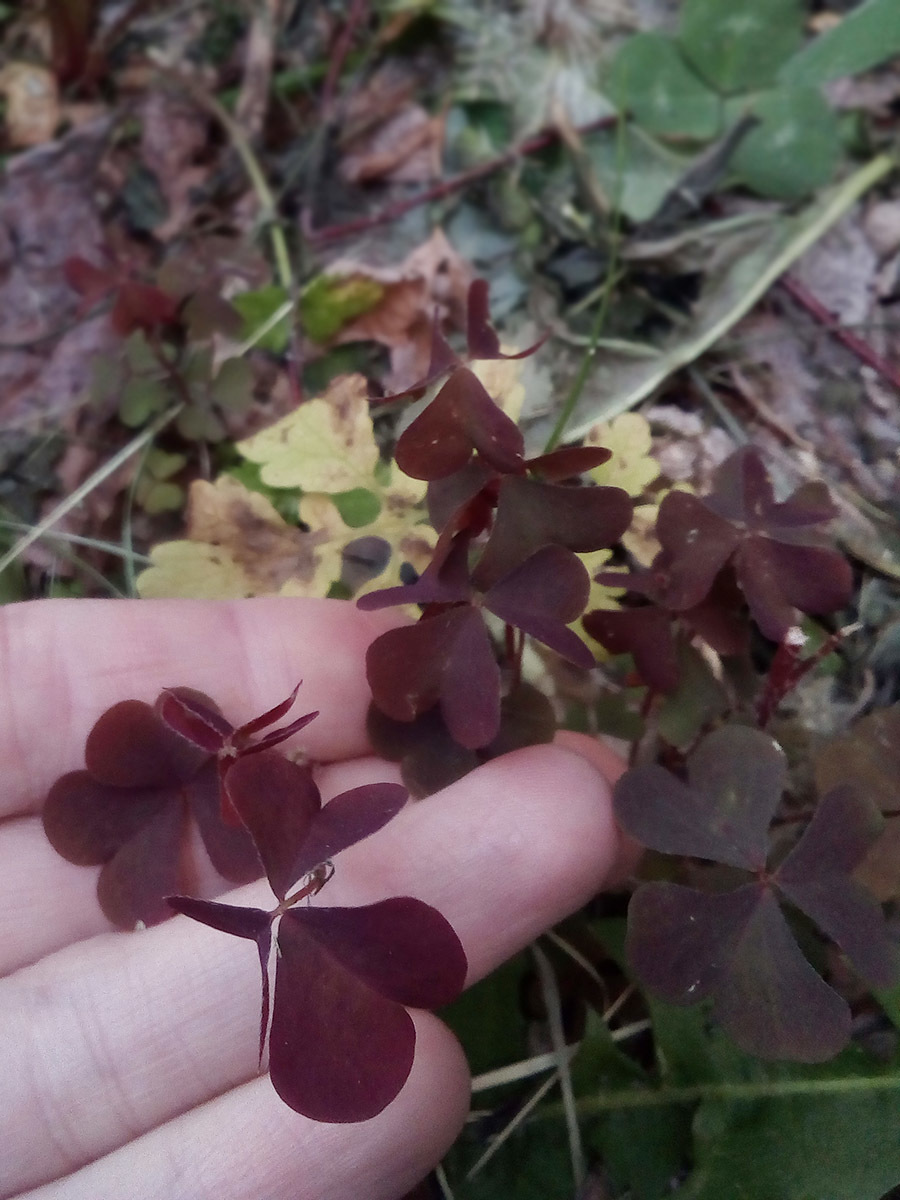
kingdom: Plantae
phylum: Tracheophyta
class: Magnoliopsida
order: Oxalidales
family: Oxalidaceae
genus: Oxalis
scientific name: Oxalis stricta
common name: Upright yellow-sorrel
